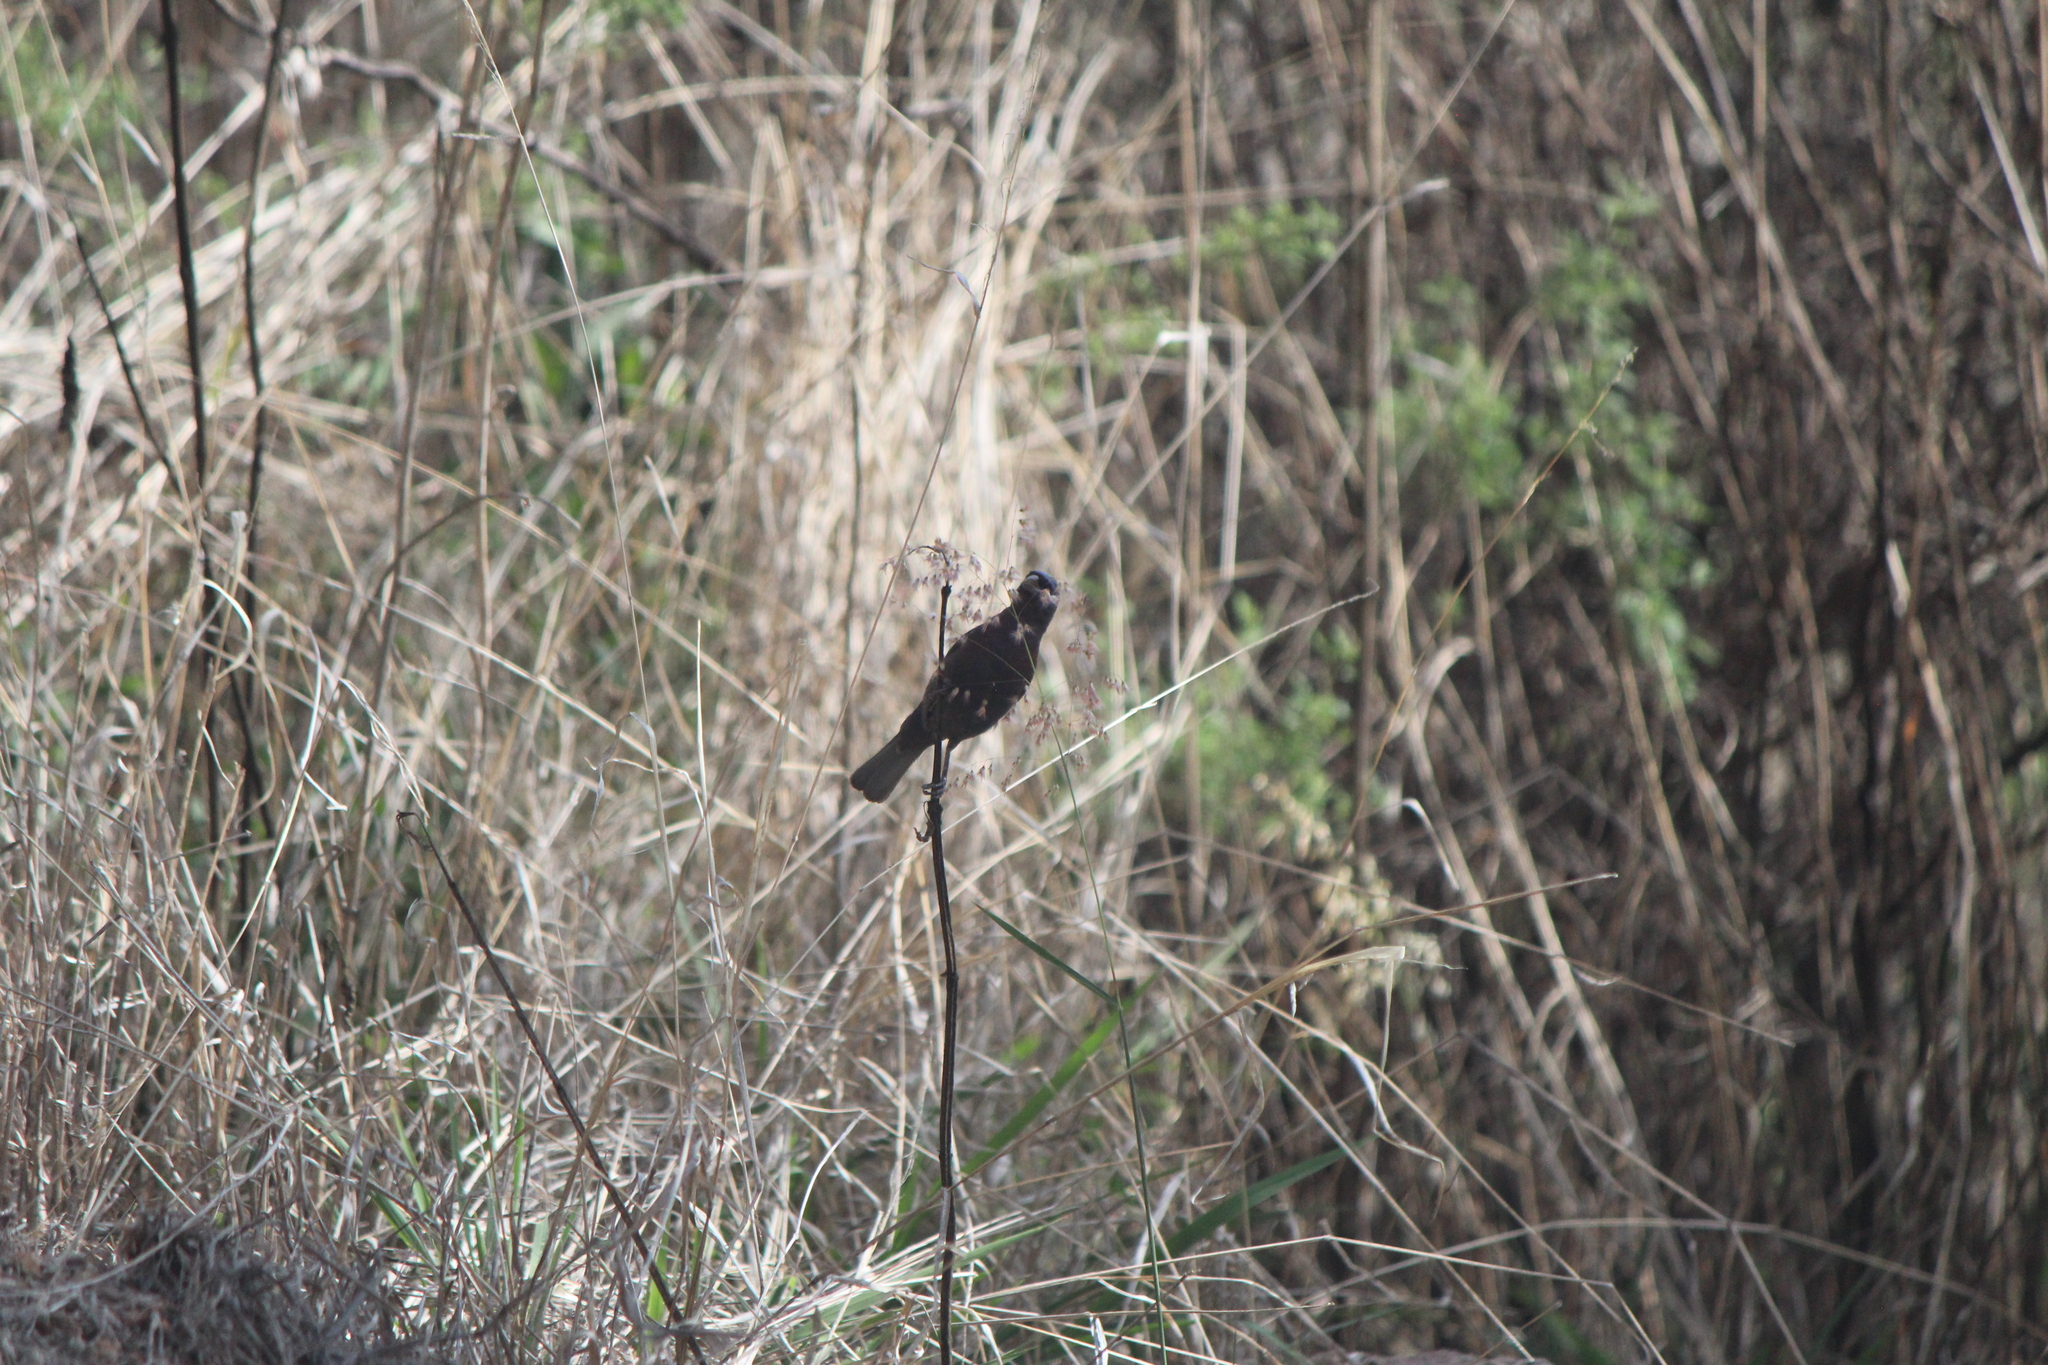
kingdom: Animalia
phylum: Chordata
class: Aves
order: Passeriformes
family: Cardinalidae
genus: Passerina
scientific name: Passerina versicolor
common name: Varied bunting
